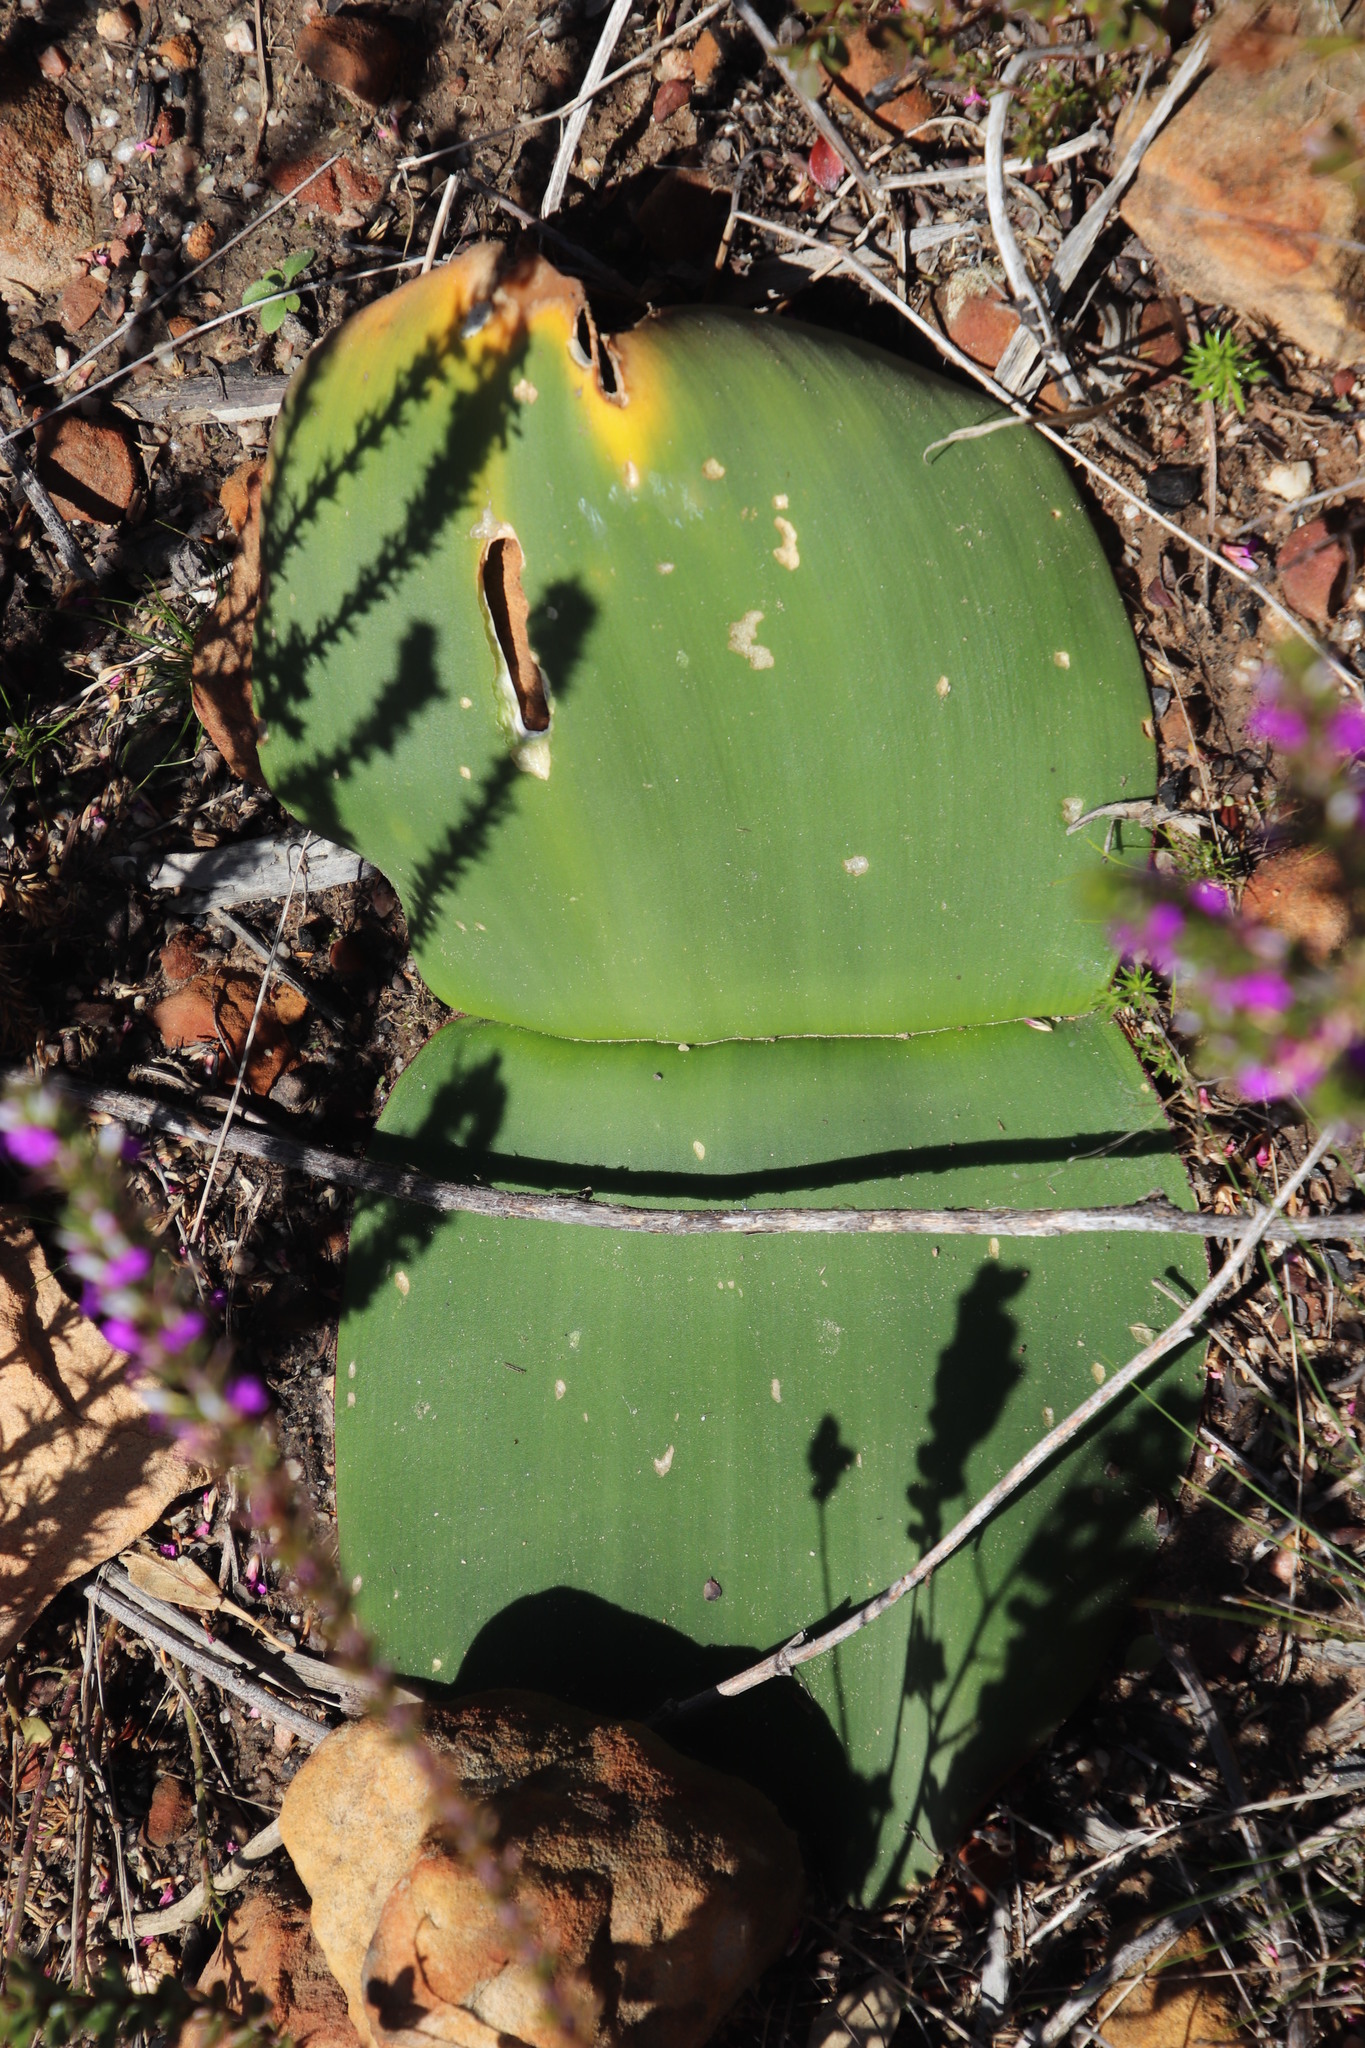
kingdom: Plantae
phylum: Tracheophyta
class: Liliopsida
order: Asparagales
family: Amaryllidaceae
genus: Haemanthus
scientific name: Haemanthus sanguineus
